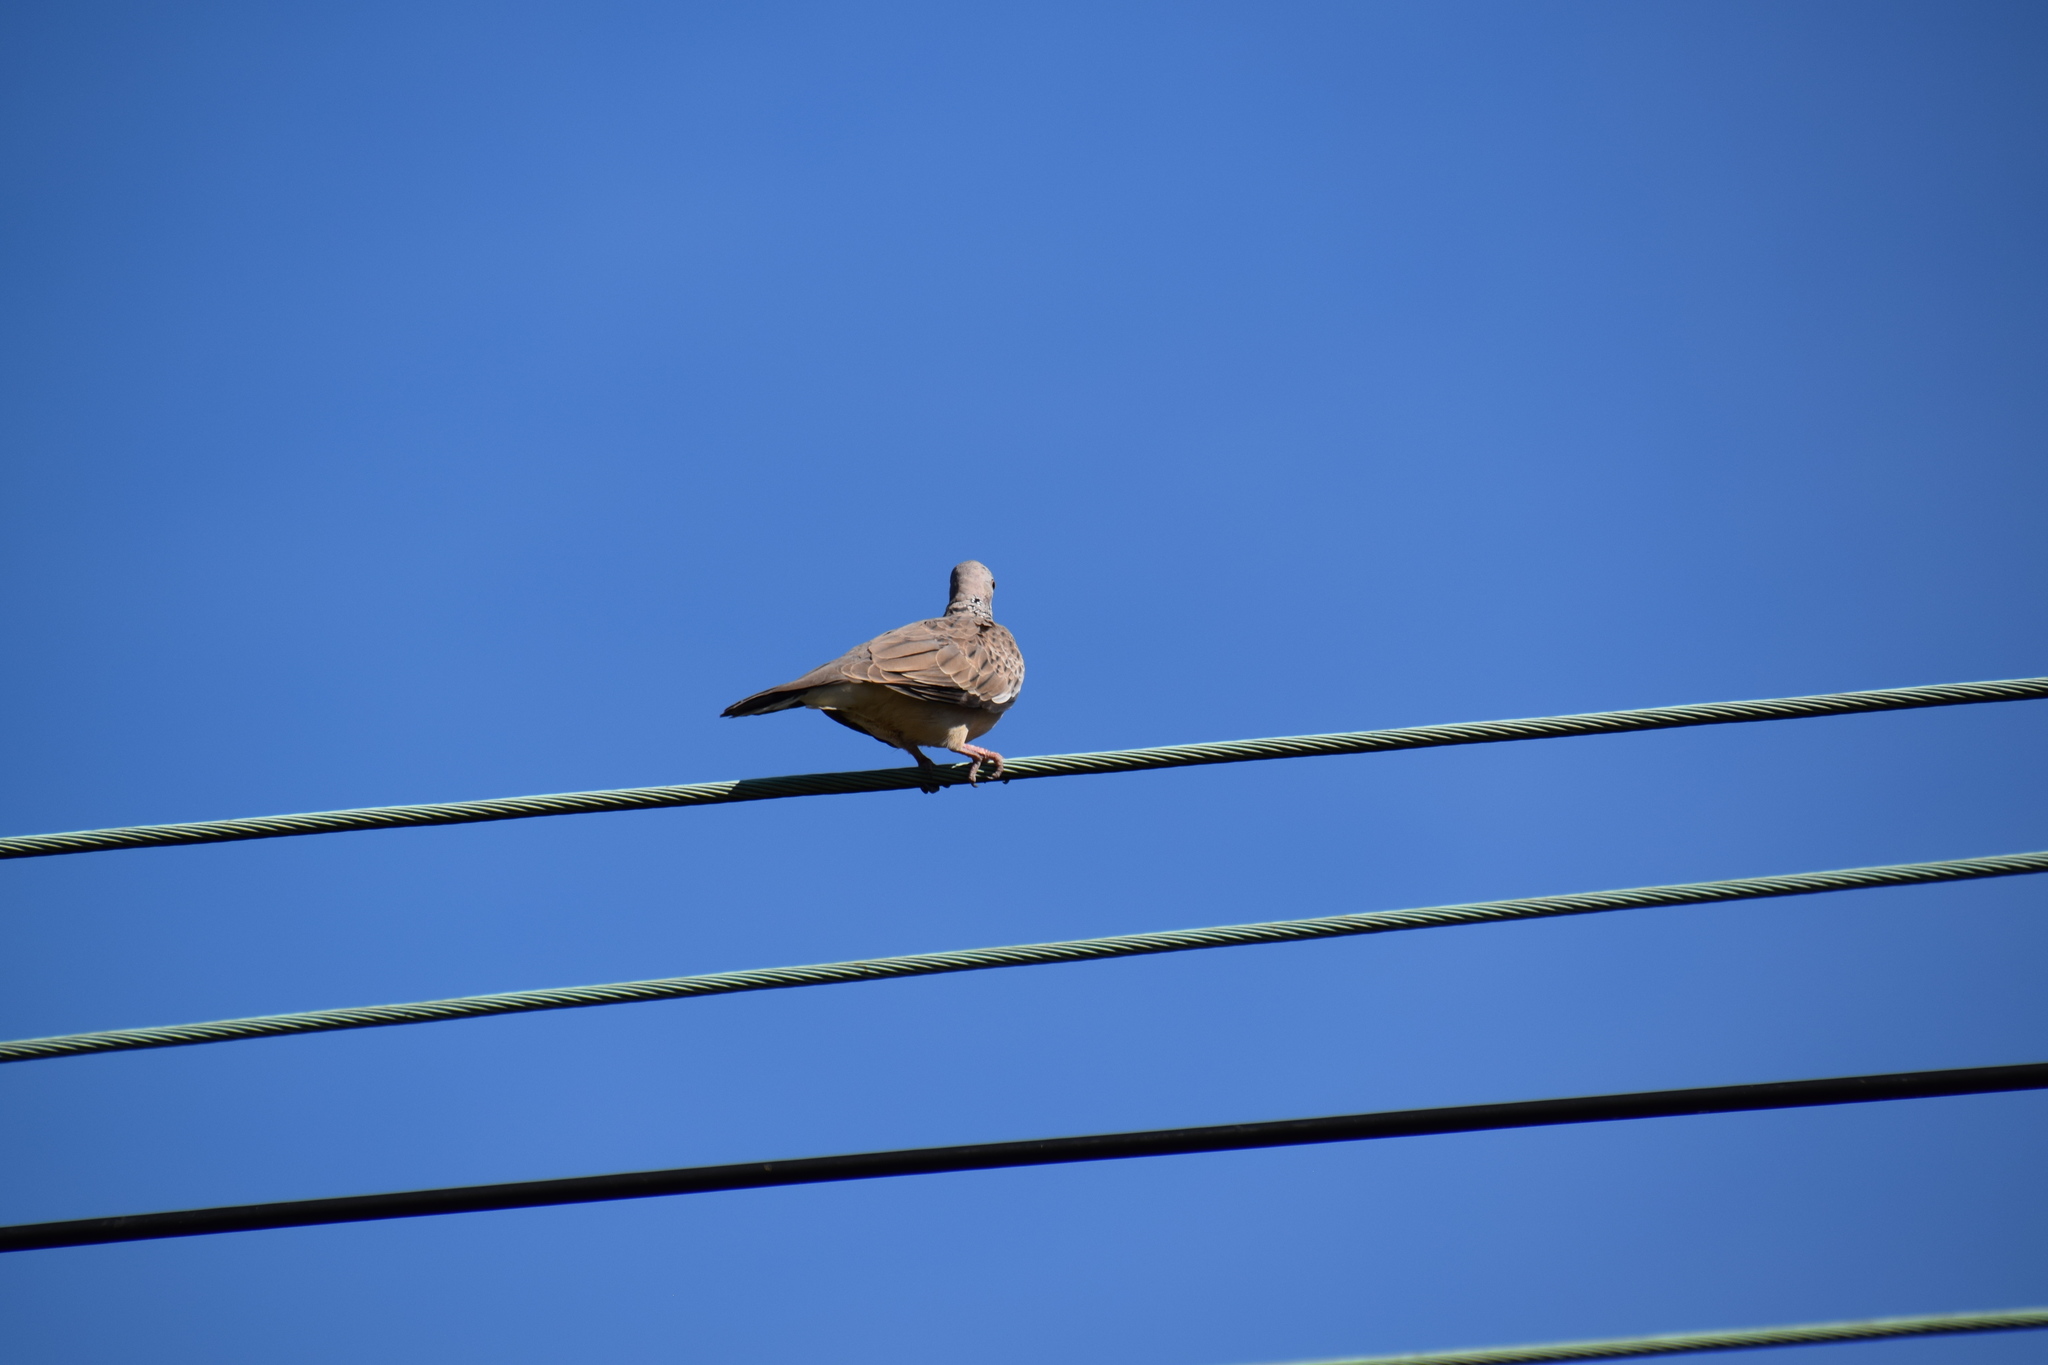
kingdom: Animalia
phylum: Chordata
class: Aves
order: Columbiformes
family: Columbidae
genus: Spilopelia
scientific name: Spilopelia chinensis
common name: Spotted dove
